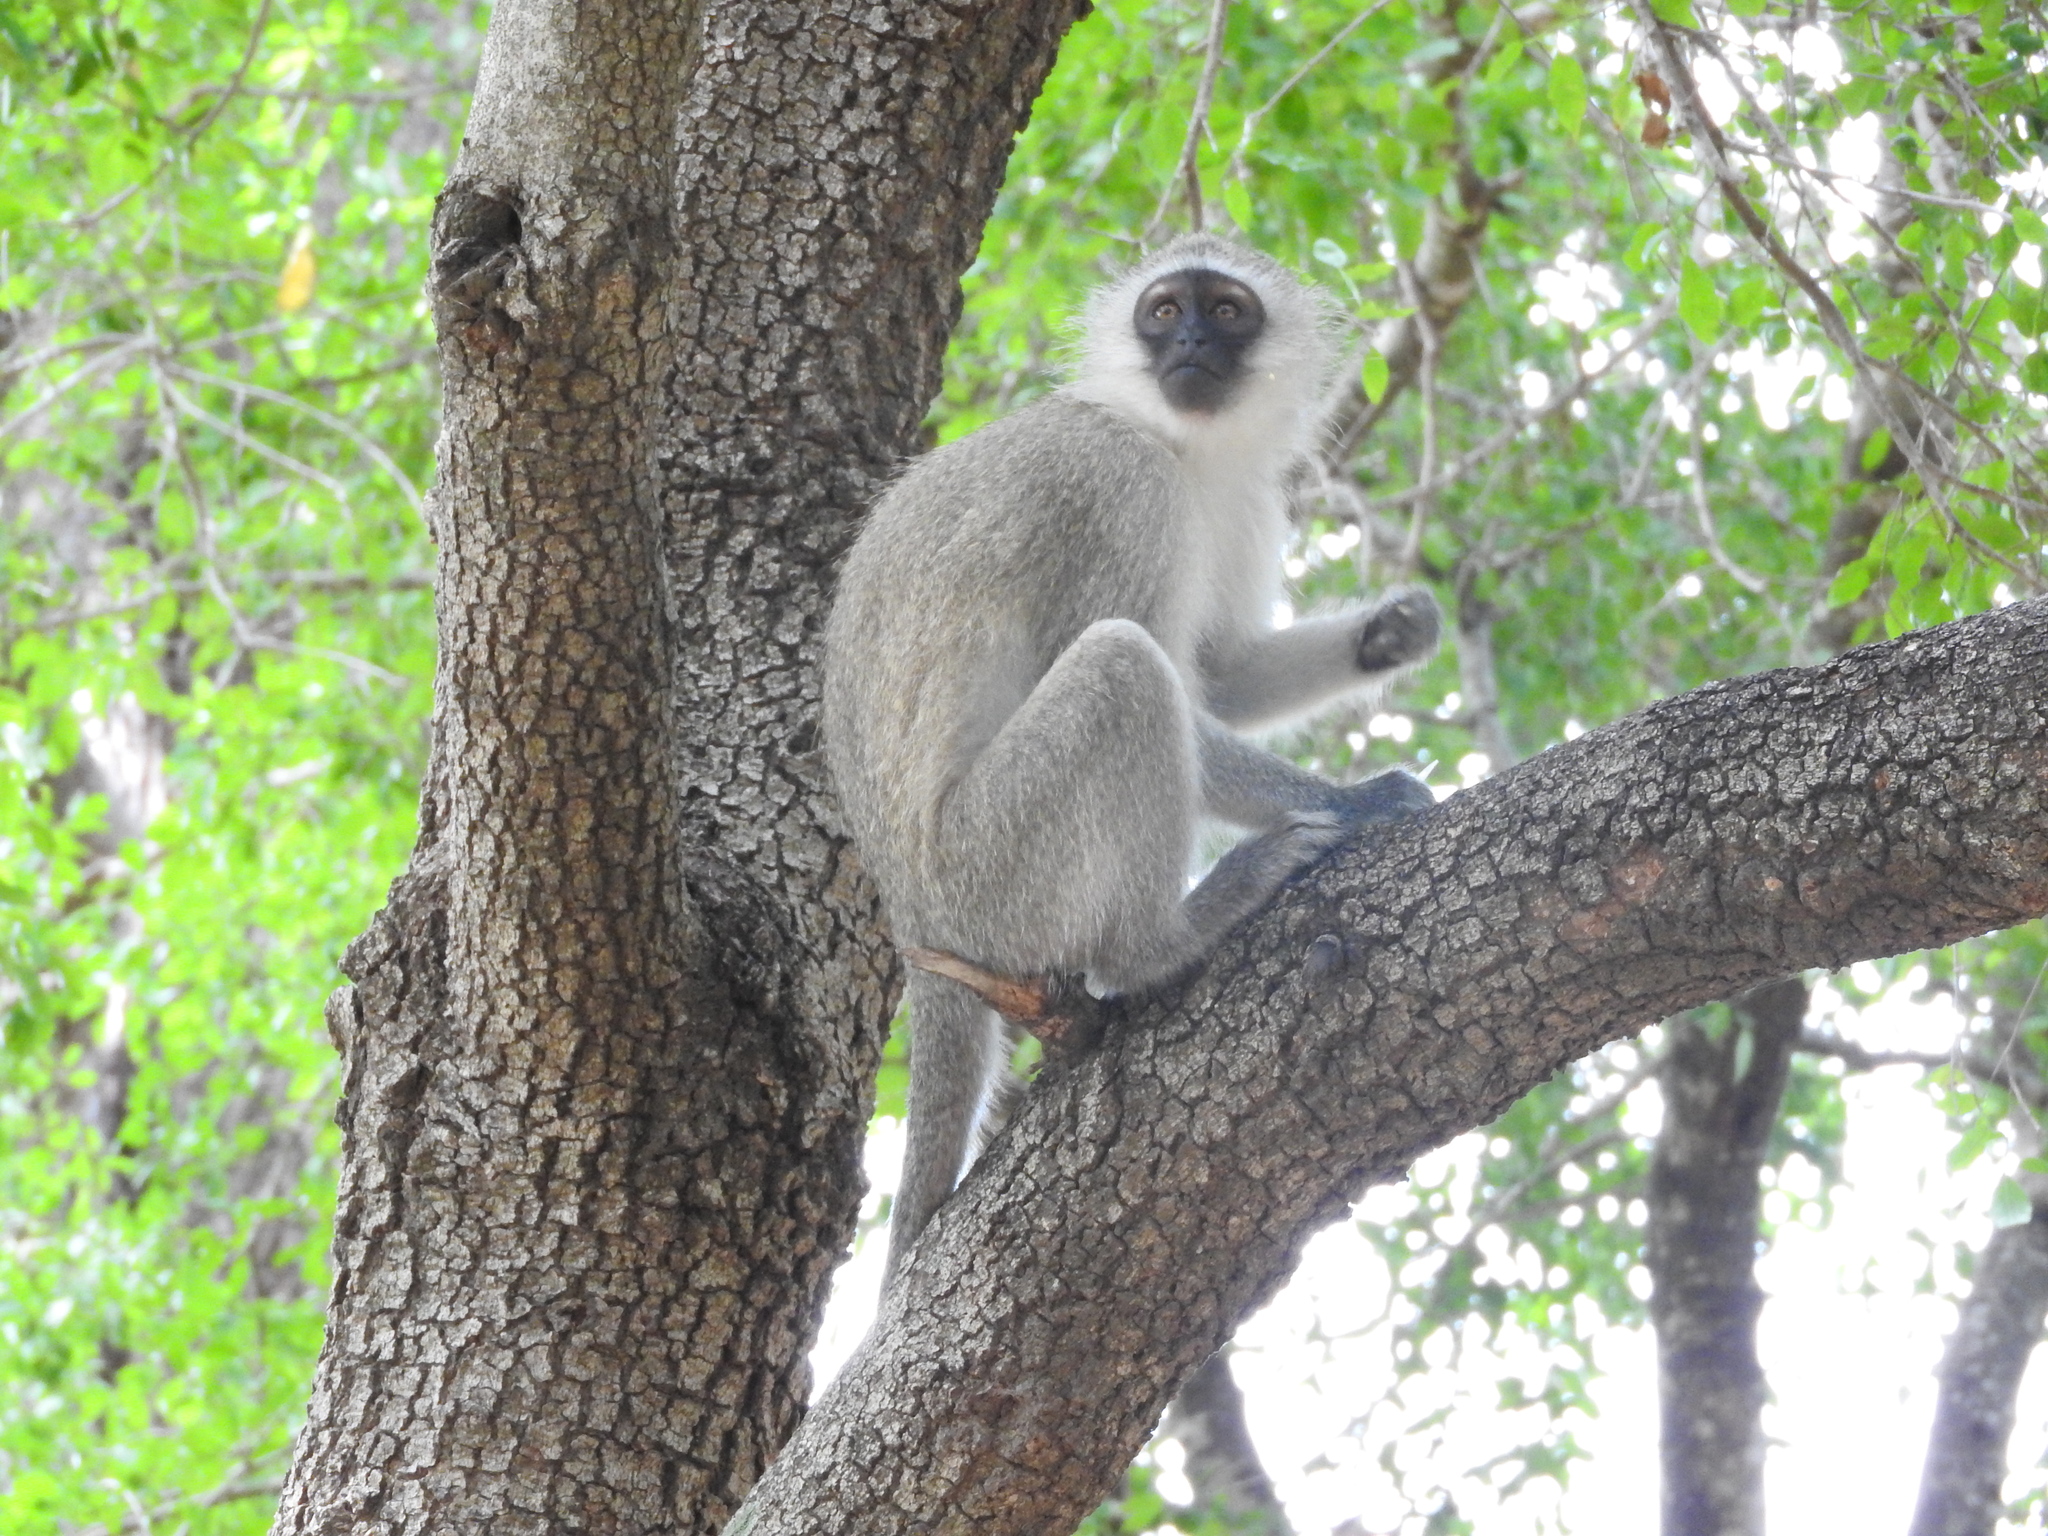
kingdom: Animalia
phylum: Chordata
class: Mammalia
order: Primates
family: Cercopithecidae
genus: Chlorocebus
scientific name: Chlorocebus pygerythrus
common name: Vervet monkey
